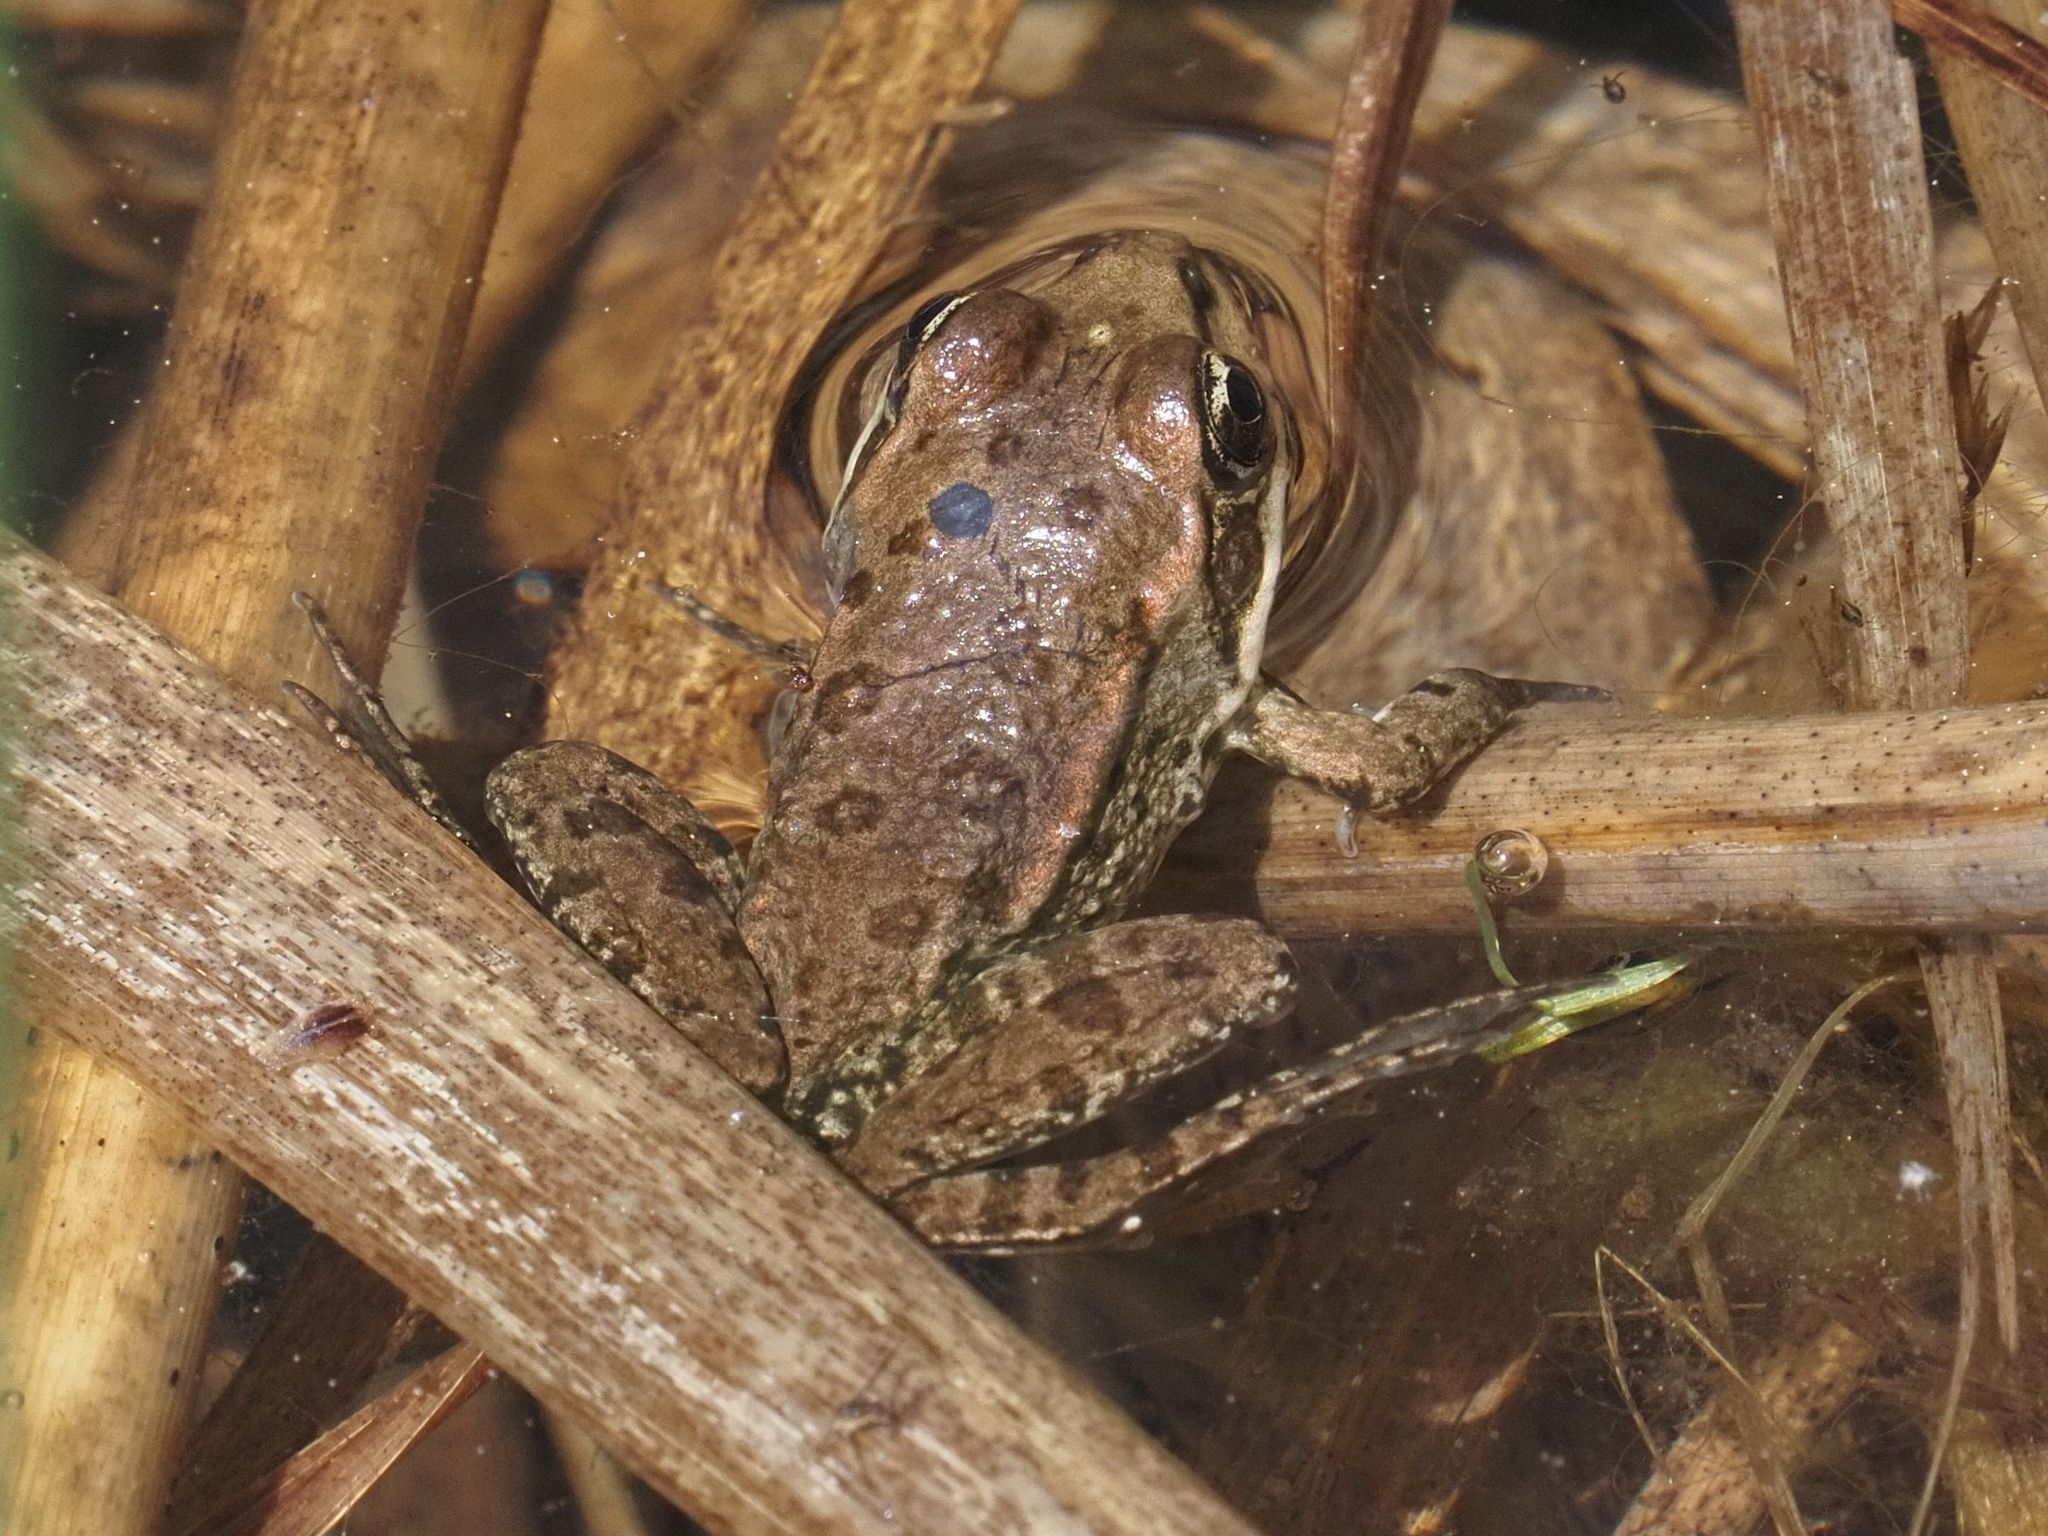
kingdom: Animalia
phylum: Chordata
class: Amphibia
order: Anura
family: Ranidae
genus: Pelophylax
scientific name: Pelophylax
